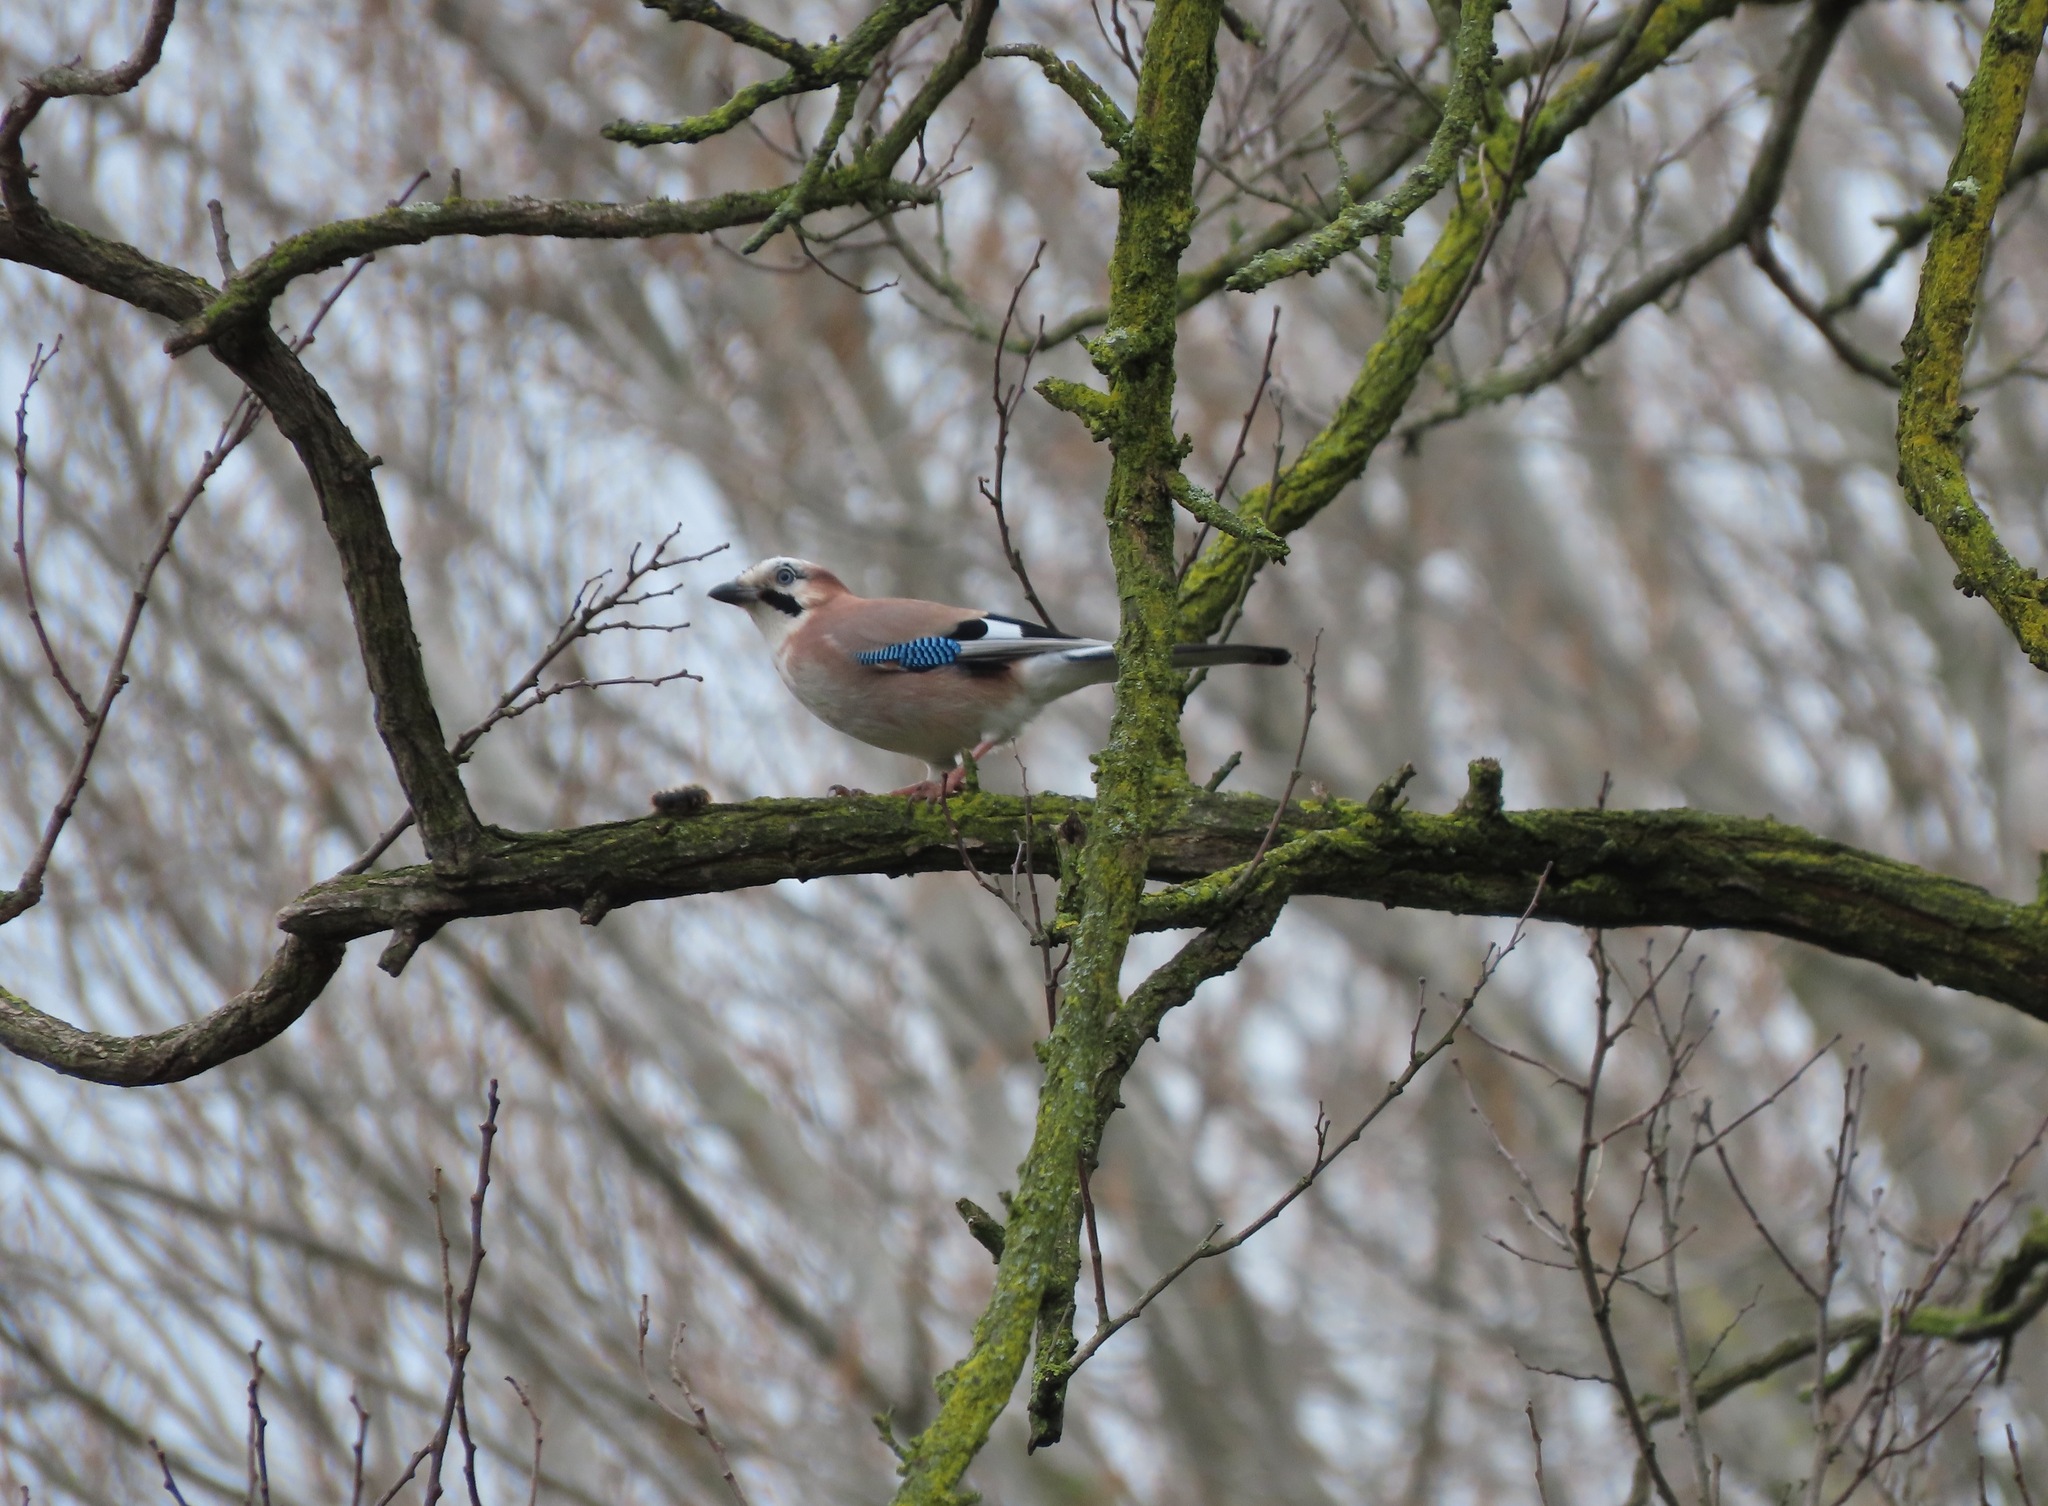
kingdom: Animalia
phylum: Chordata
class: Aves
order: Passeriformes
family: Corvidae
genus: Garrulus
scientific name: Garrulus glandarius
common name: Eurasian jay
